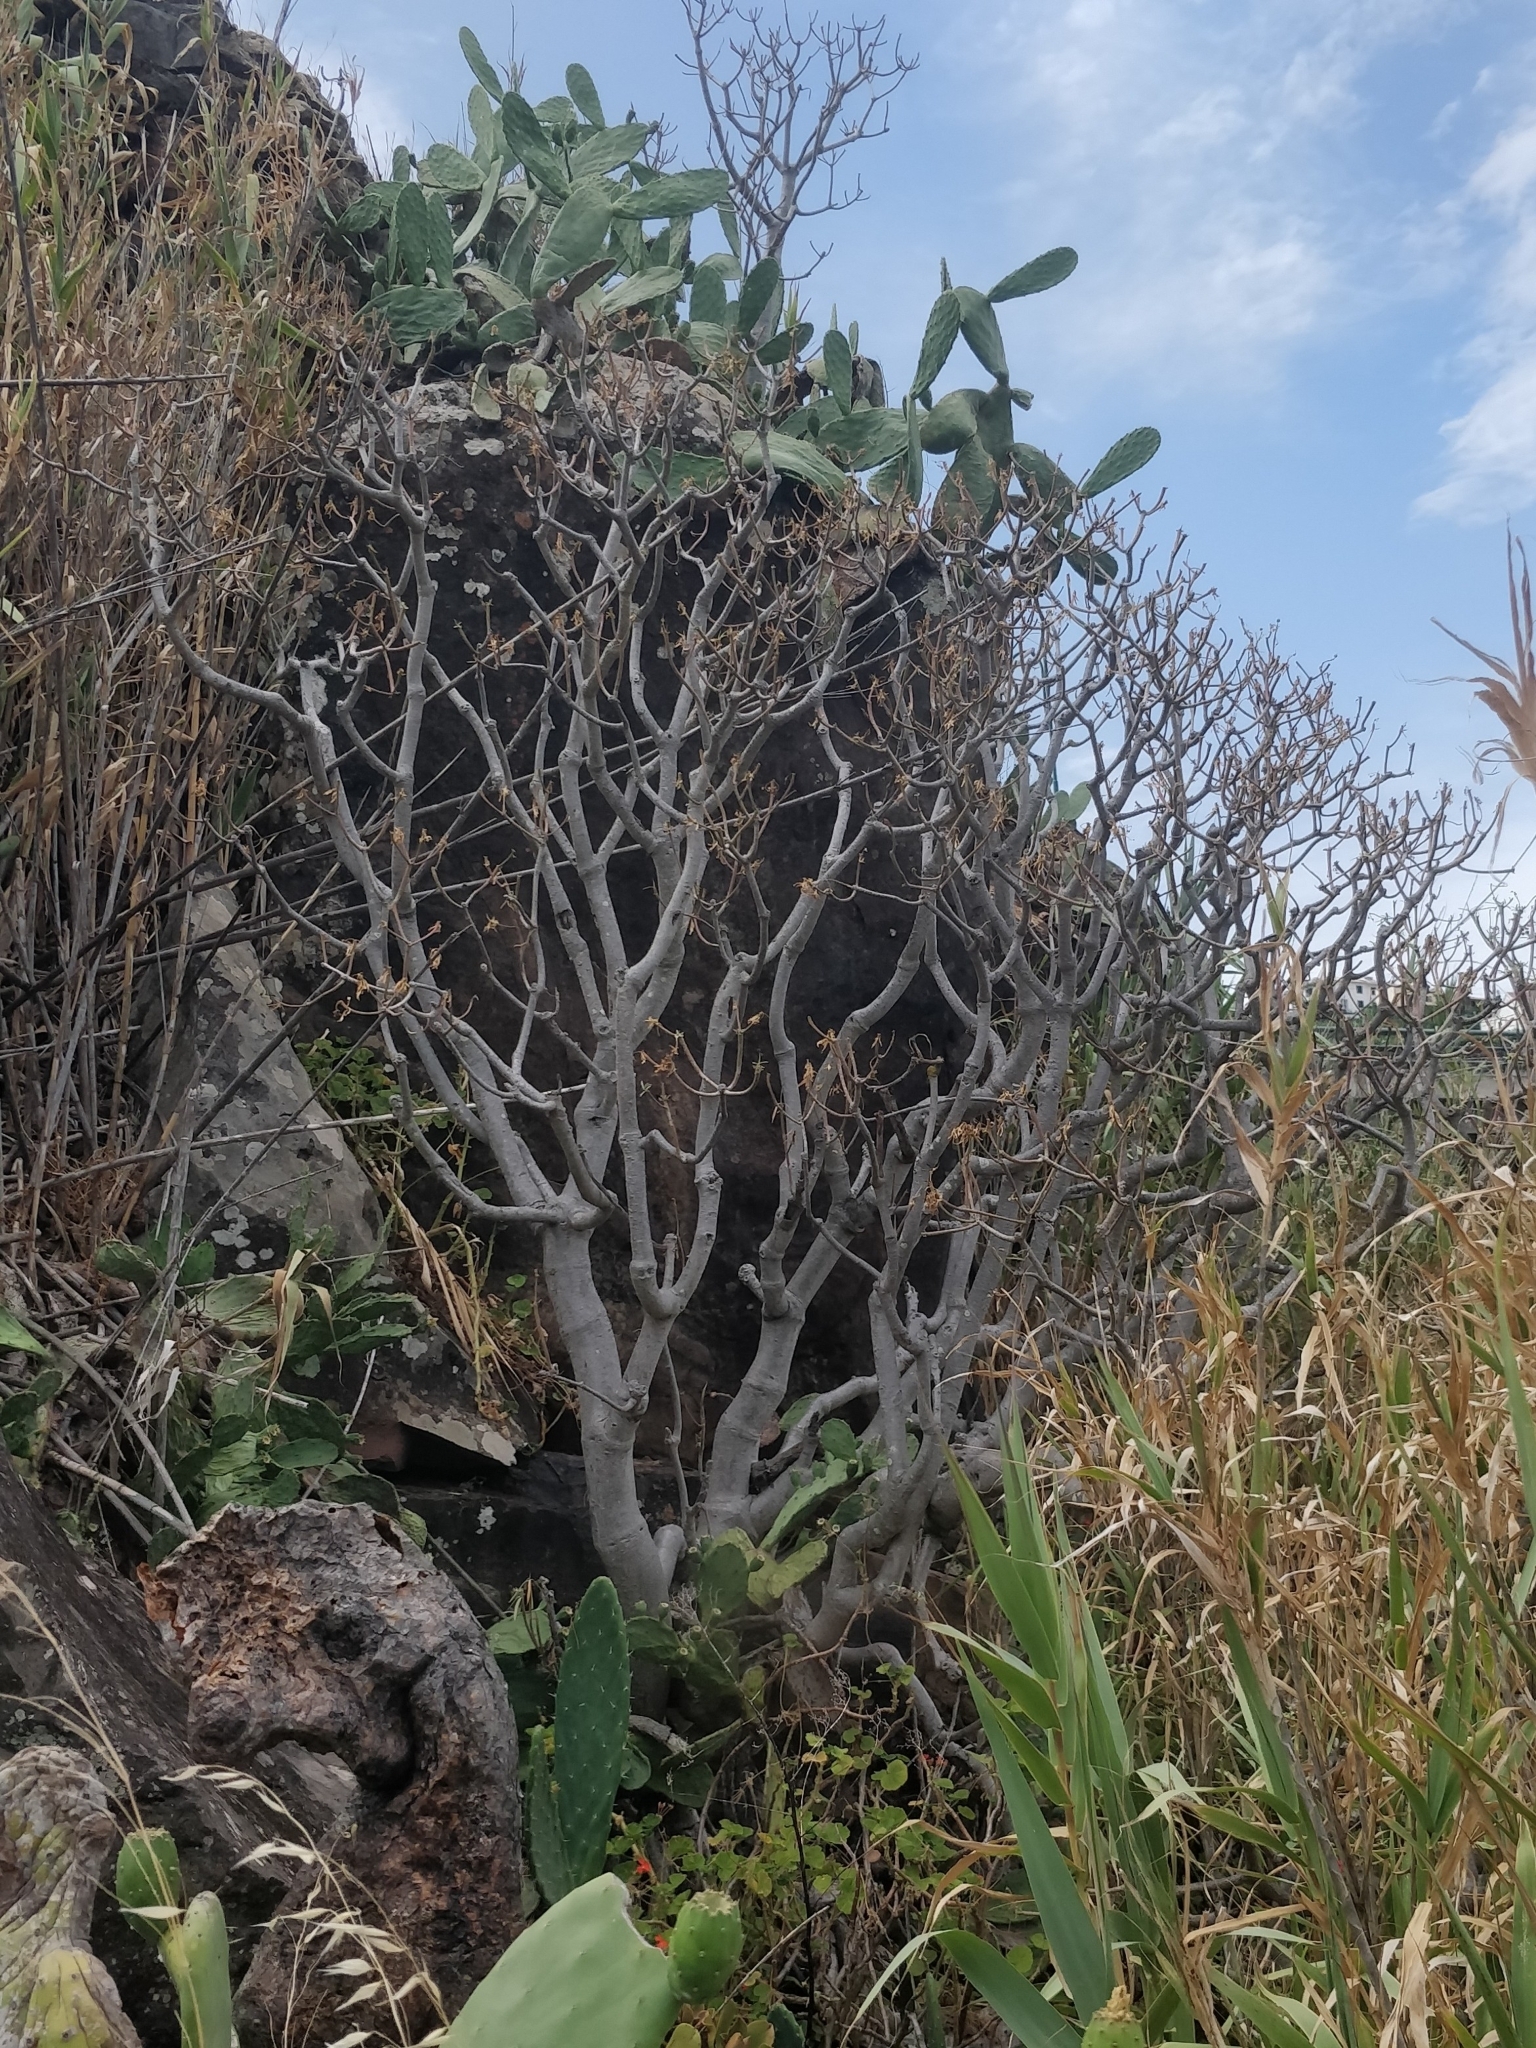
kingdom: Plantae
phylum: Tracheophyta
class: Magnoliopsida
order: Malpighiales
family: Euphorbiaceae
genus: Euphorbia
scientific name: Euphorbia piscatoria
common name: Fish-stunning spurge
